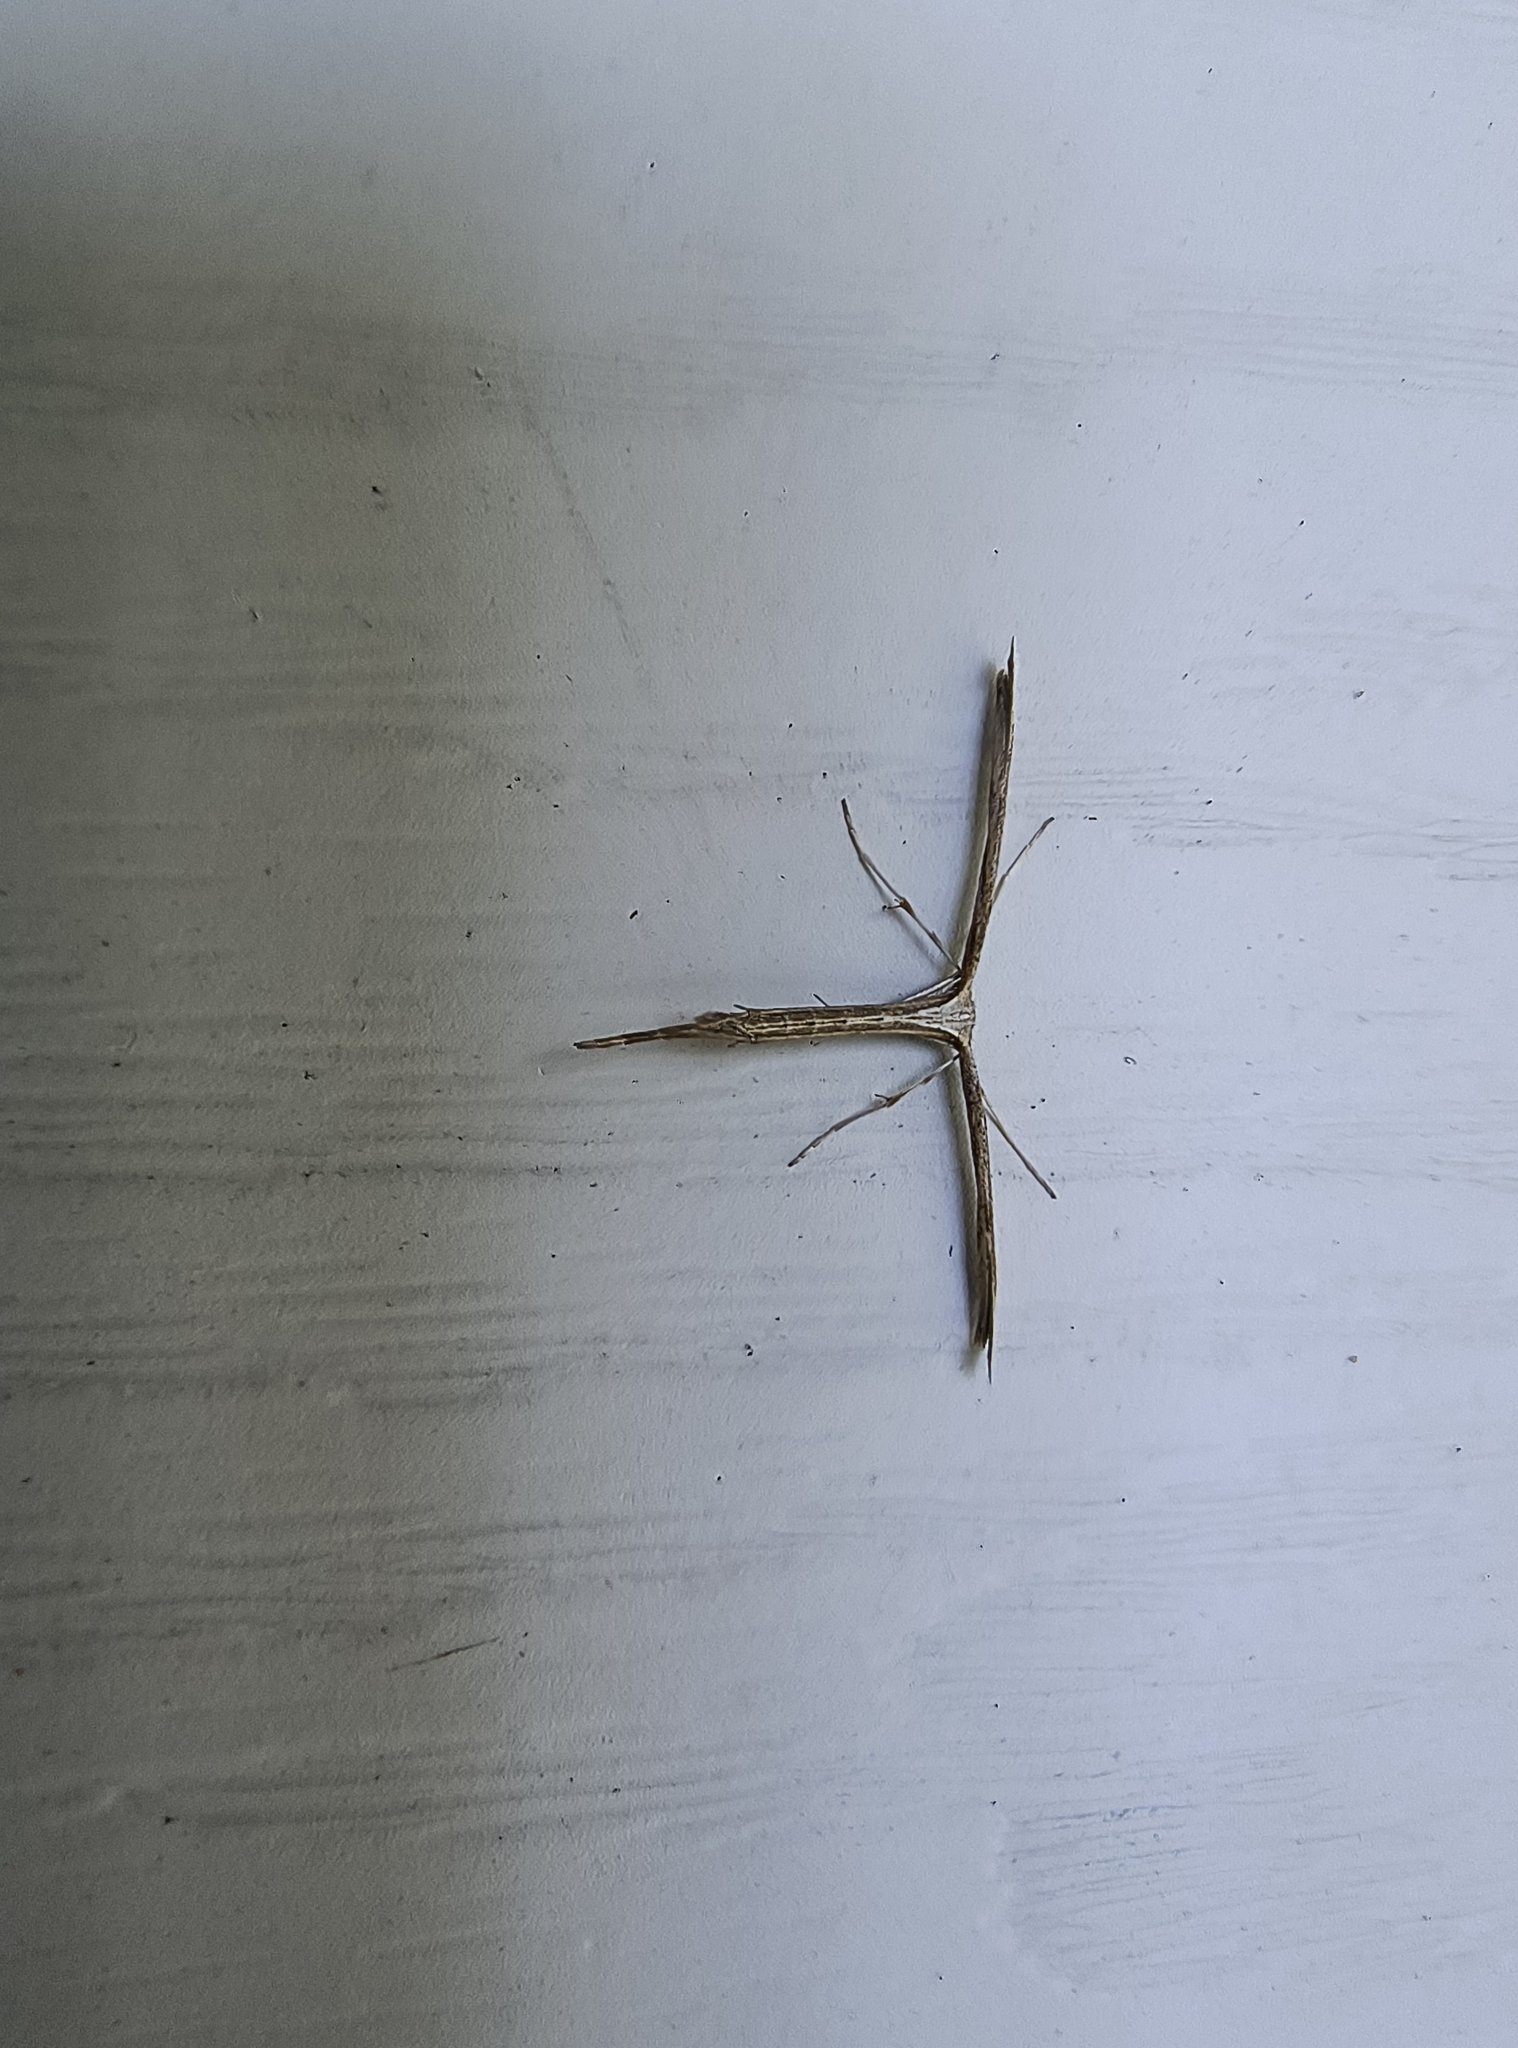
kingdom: Animalia
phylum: Arthropoda
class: Insecta
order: Lepidoptera
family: Pterophoridae
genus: Emmelina
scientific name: Emmelina monodactyla
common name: Common plume
